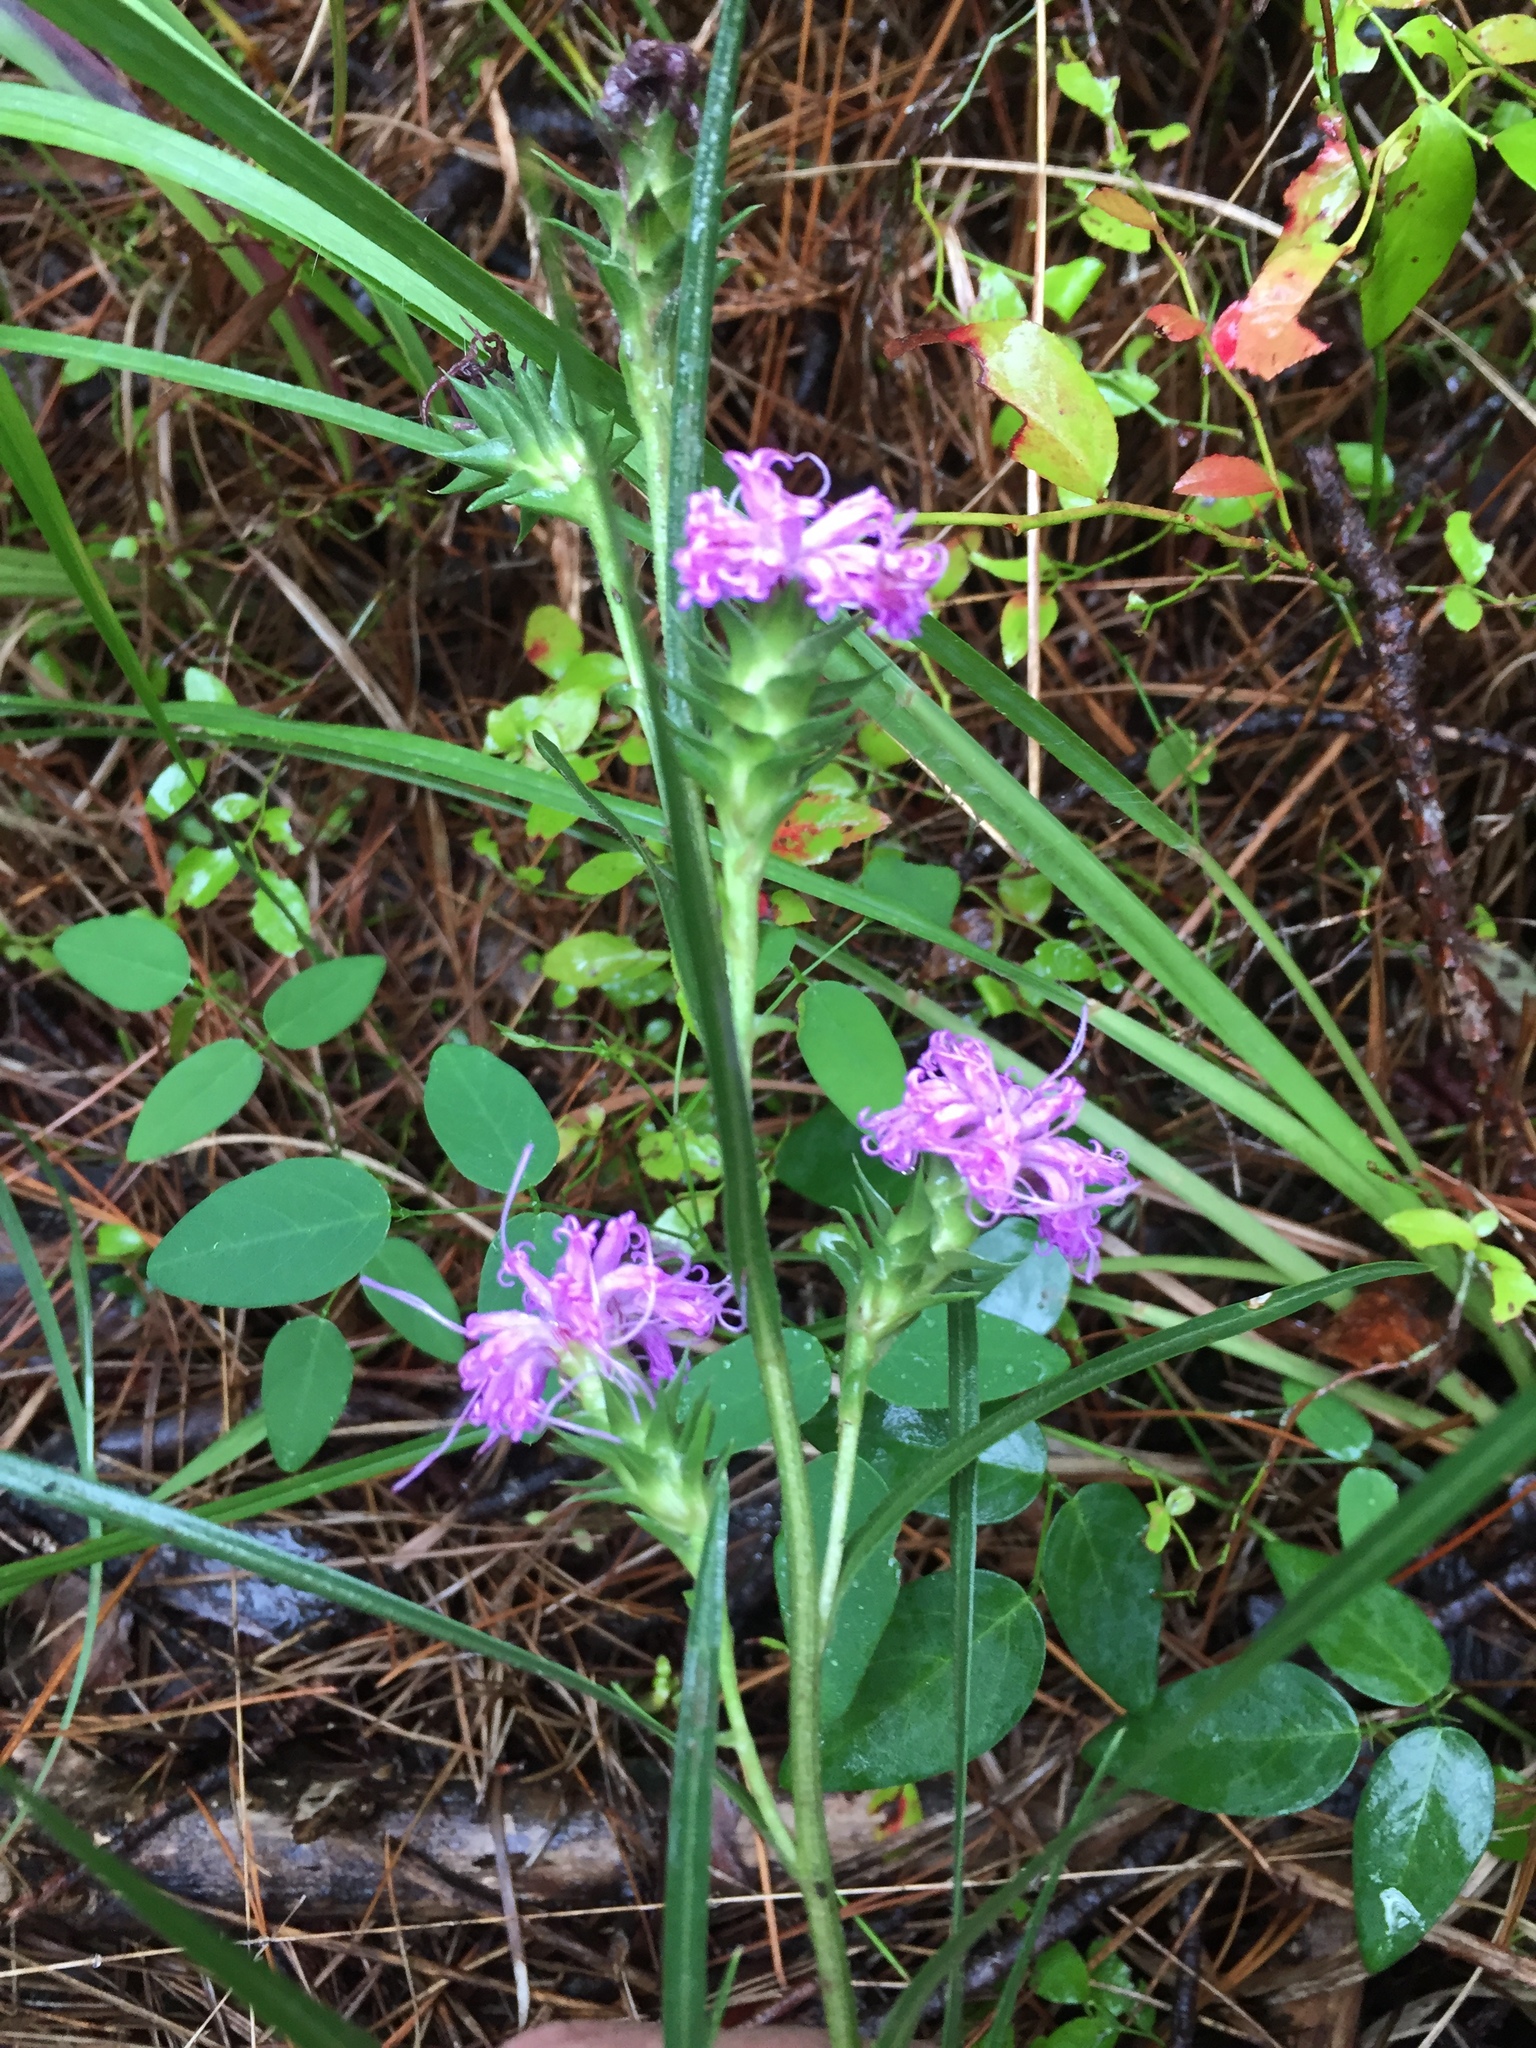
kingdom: Plantae
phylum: Tracheophyta
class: Magnoliopsida
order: Asterales
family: Asteraceae
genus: Liatris
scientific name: Liatris squarrosa
